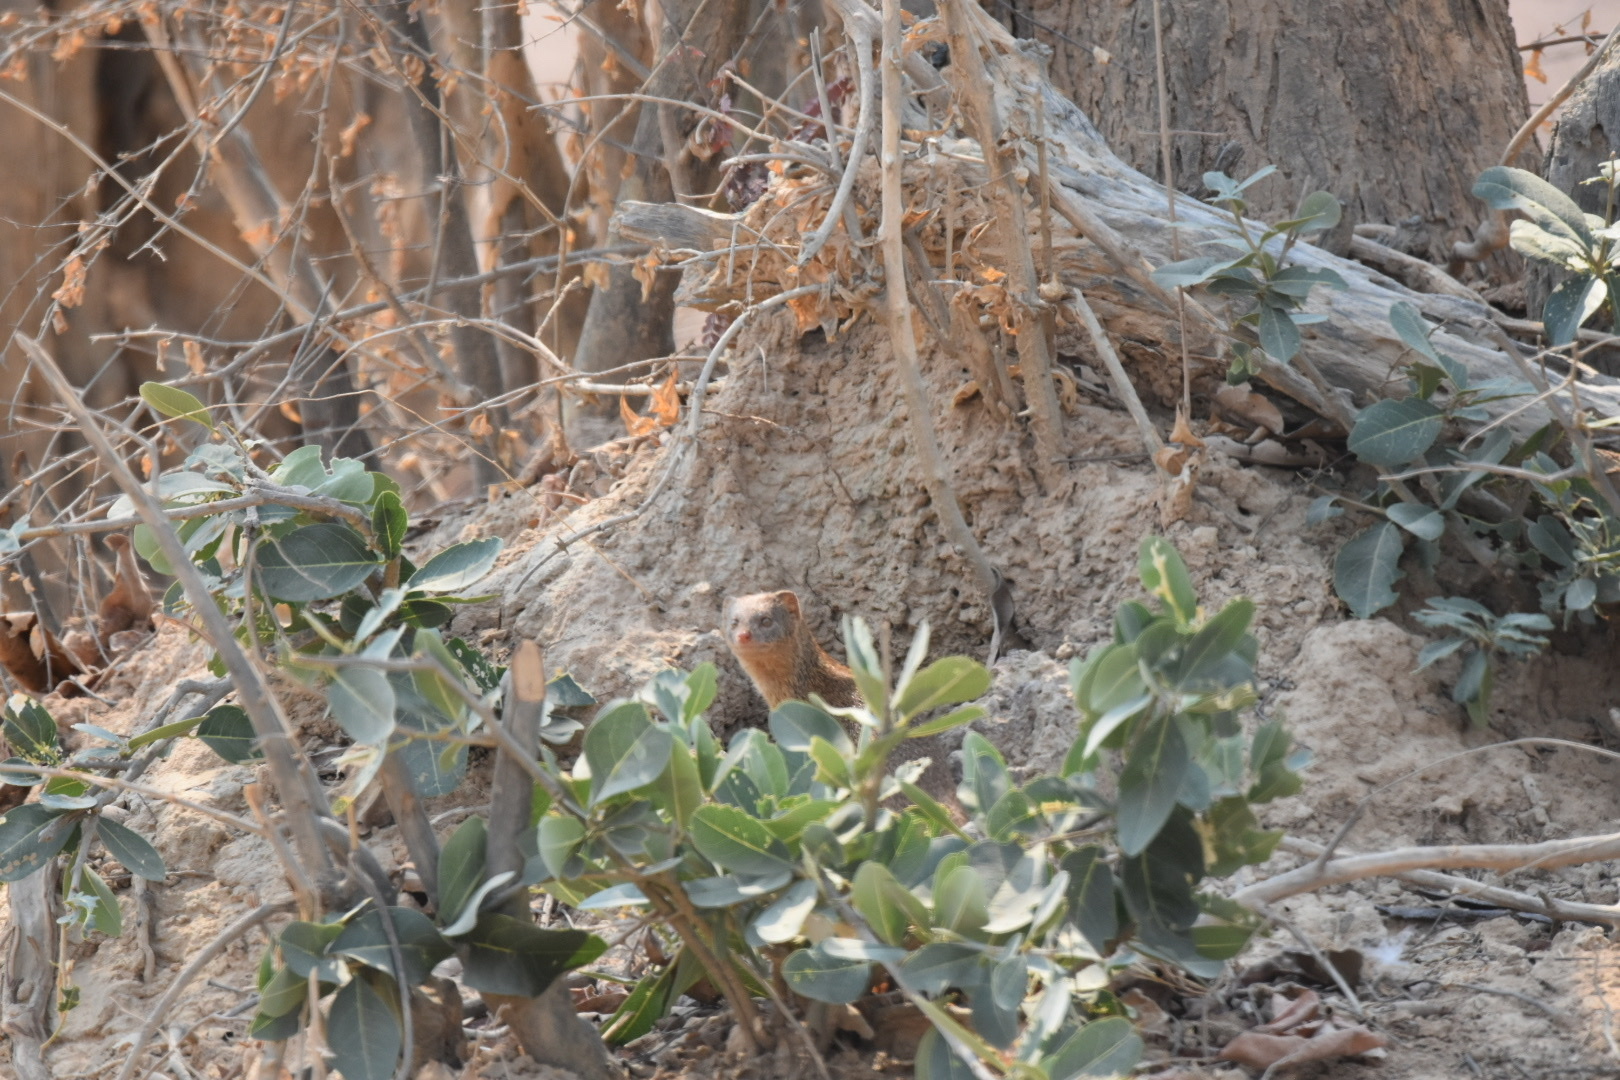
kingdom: Animalia
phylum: Chordata
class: Mammalia
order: Carnivora
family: Herpestidae
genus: Galerella
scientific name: Galerella sanguinea
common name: Slender mongoose
